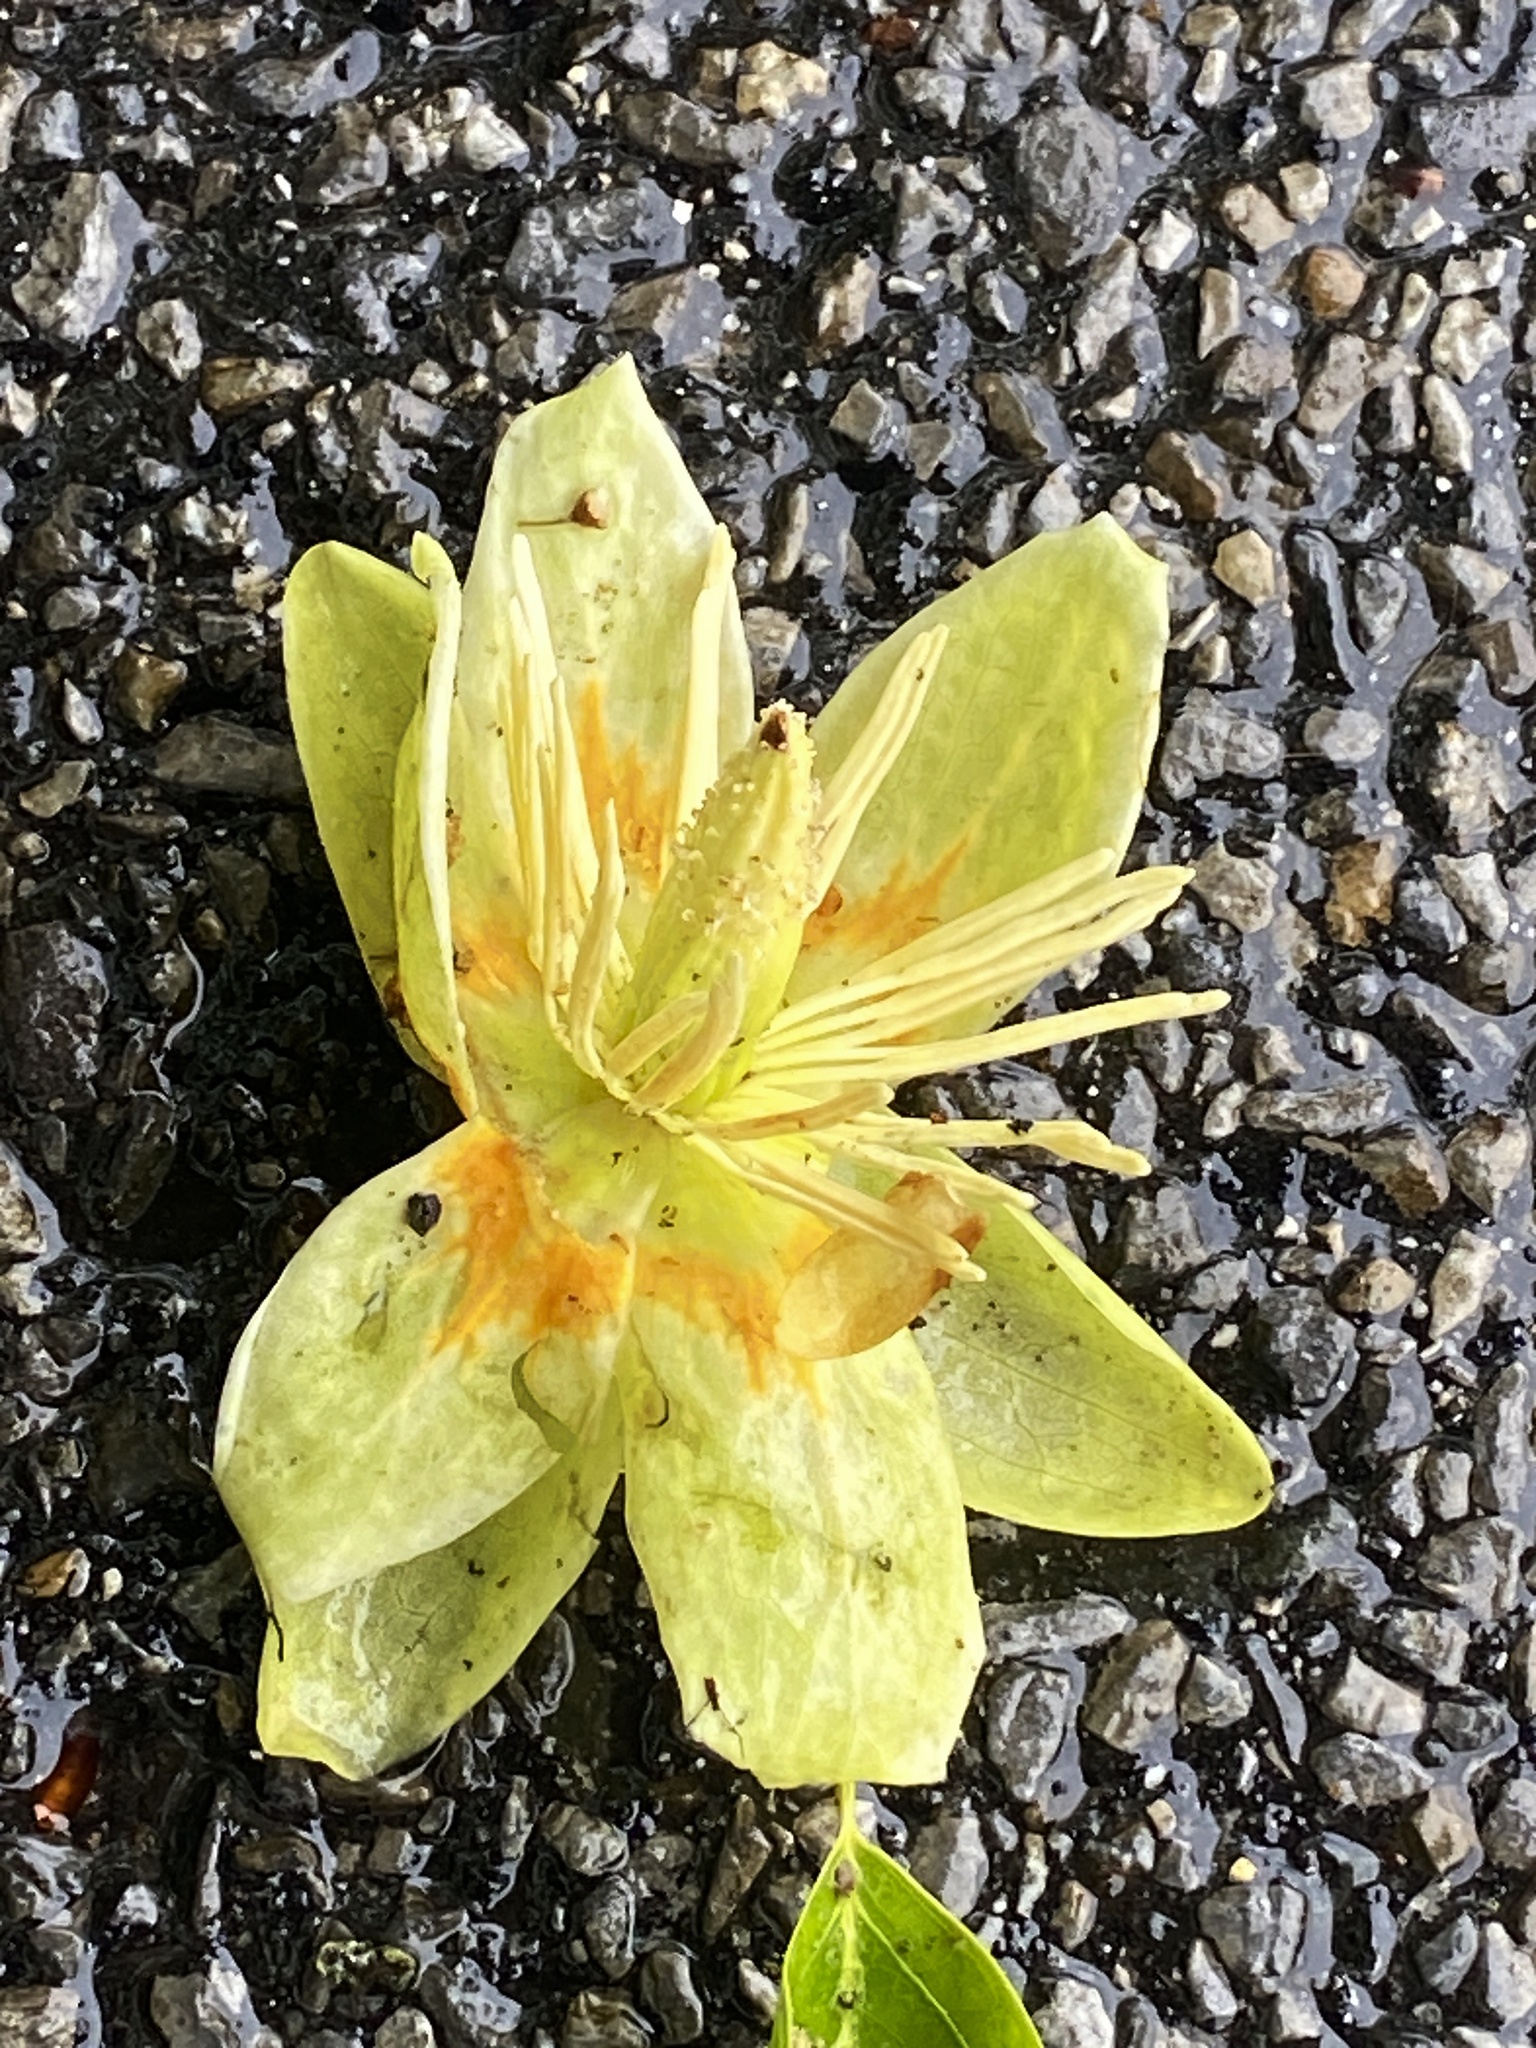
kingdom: Plantae
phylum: Tracheophyta
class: Magnoliopsida
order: Magnoliales
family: Magnoliaceae
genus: Liriodendron
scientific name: Liriodendron tulipifera
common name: Tulip tree
